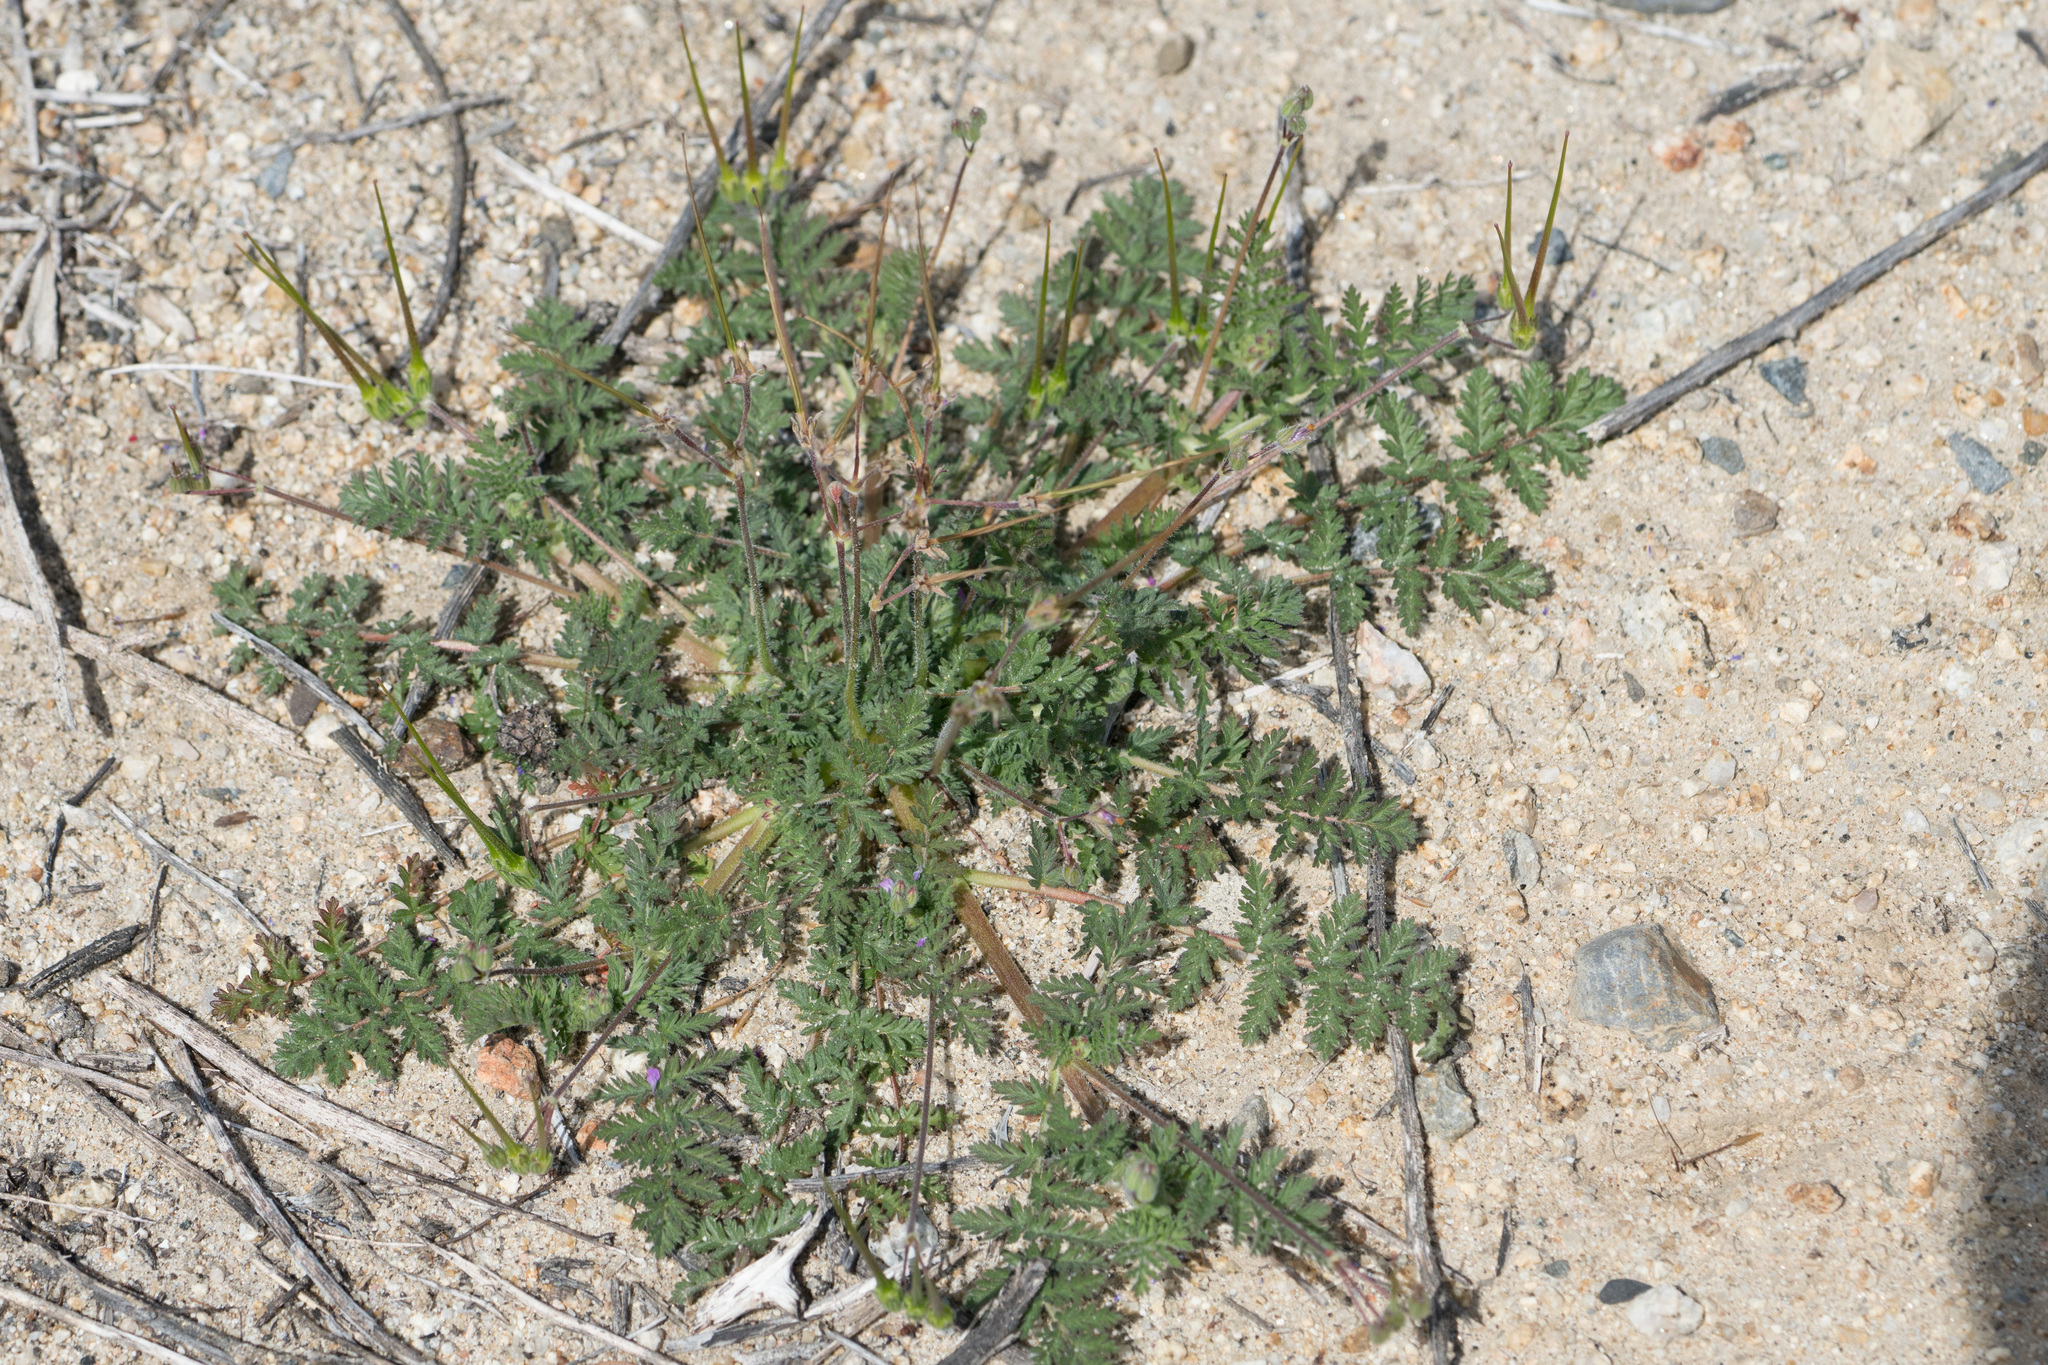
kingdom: Plantae
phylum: Tracheophyta
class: Magnoliopsida
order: Geraniales
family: Geraniaceae
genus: Erodium
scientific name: Erodium cicutarium
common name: Common stork's-bill
